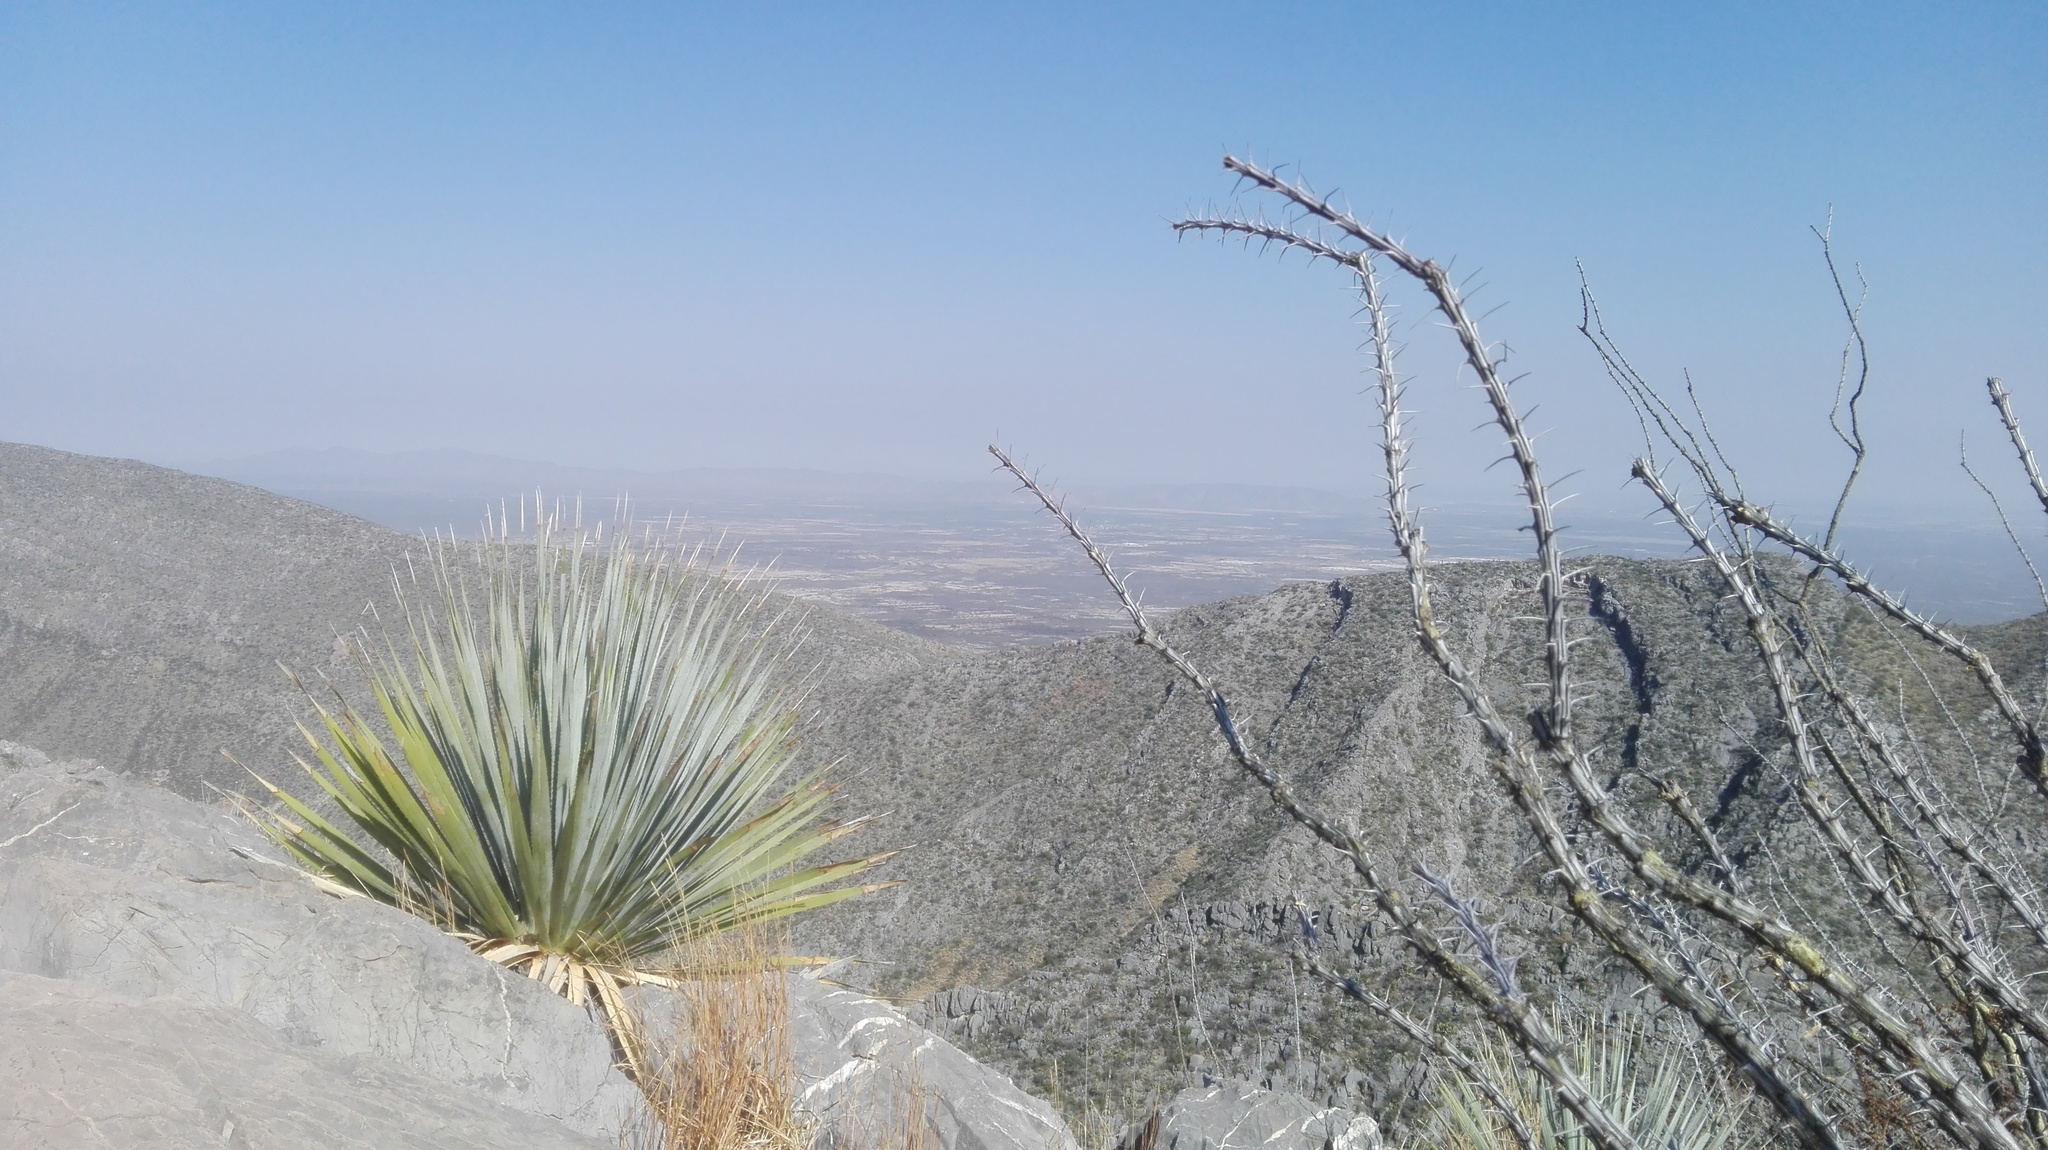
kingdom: Plantae
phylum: Tracheophyta
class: Magnoliopsida
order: Ericales
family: Fouquieriaceae
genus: Fouquieria
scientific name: Fouquieria splendens
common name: Vine-cactus
